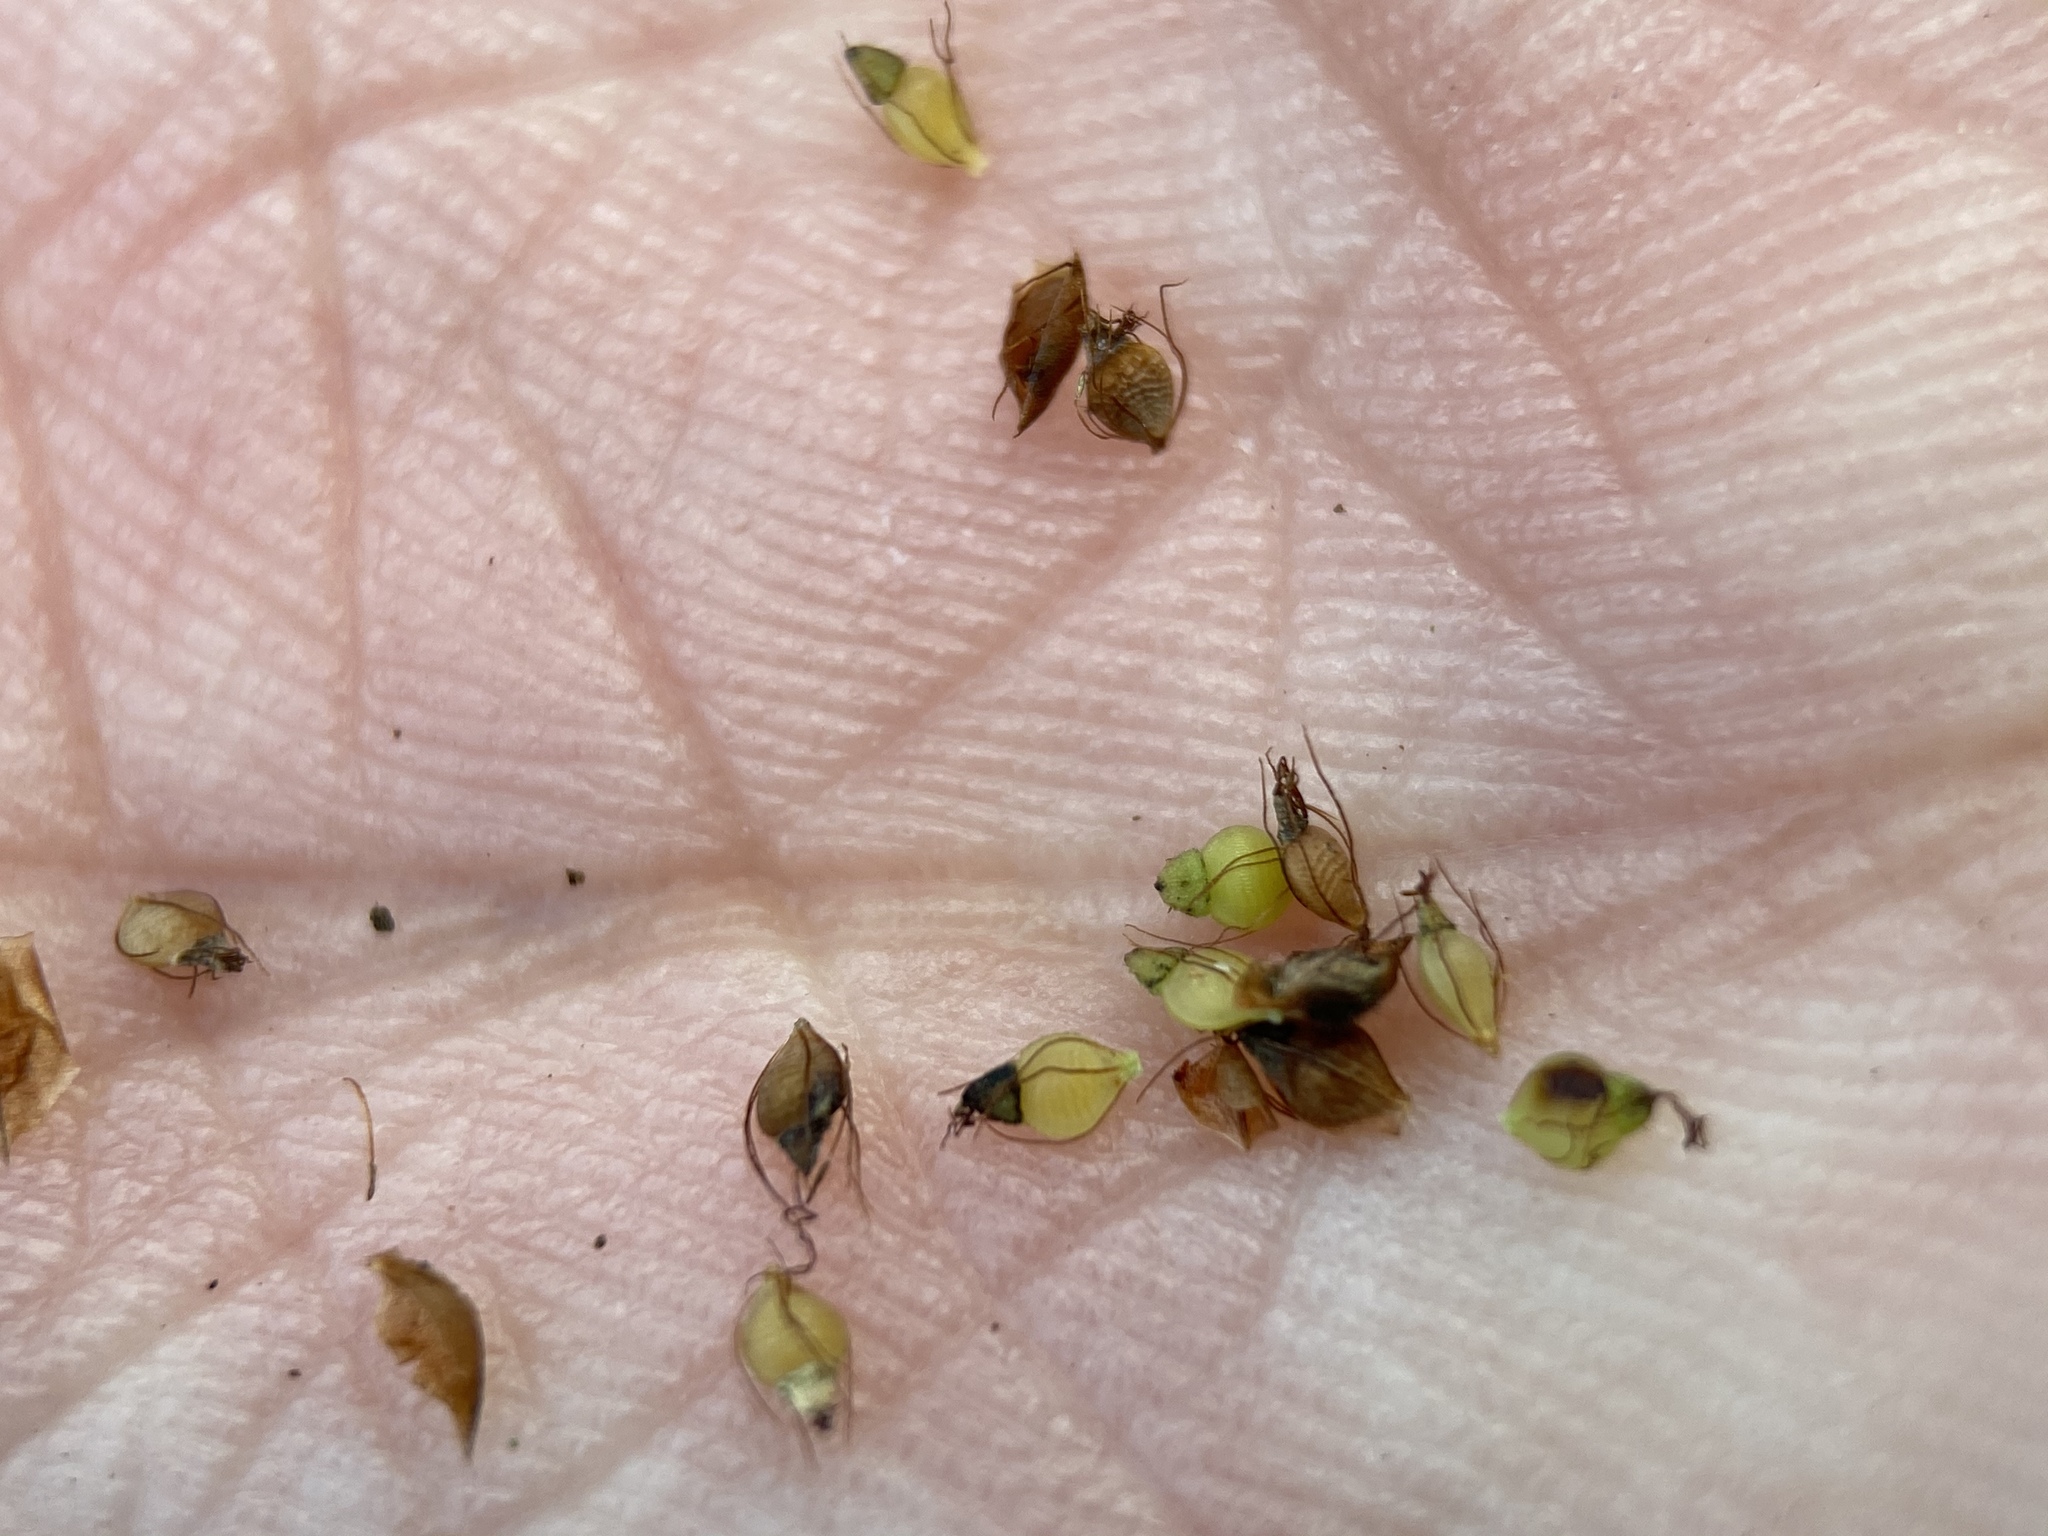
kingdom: Plantae
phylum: Tracheophyta
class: Liliopsida
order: Poales
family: Cyperaceae
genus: Rhynchospora
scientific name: Rhynchospora caduca
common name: Anglestem beaksedge
